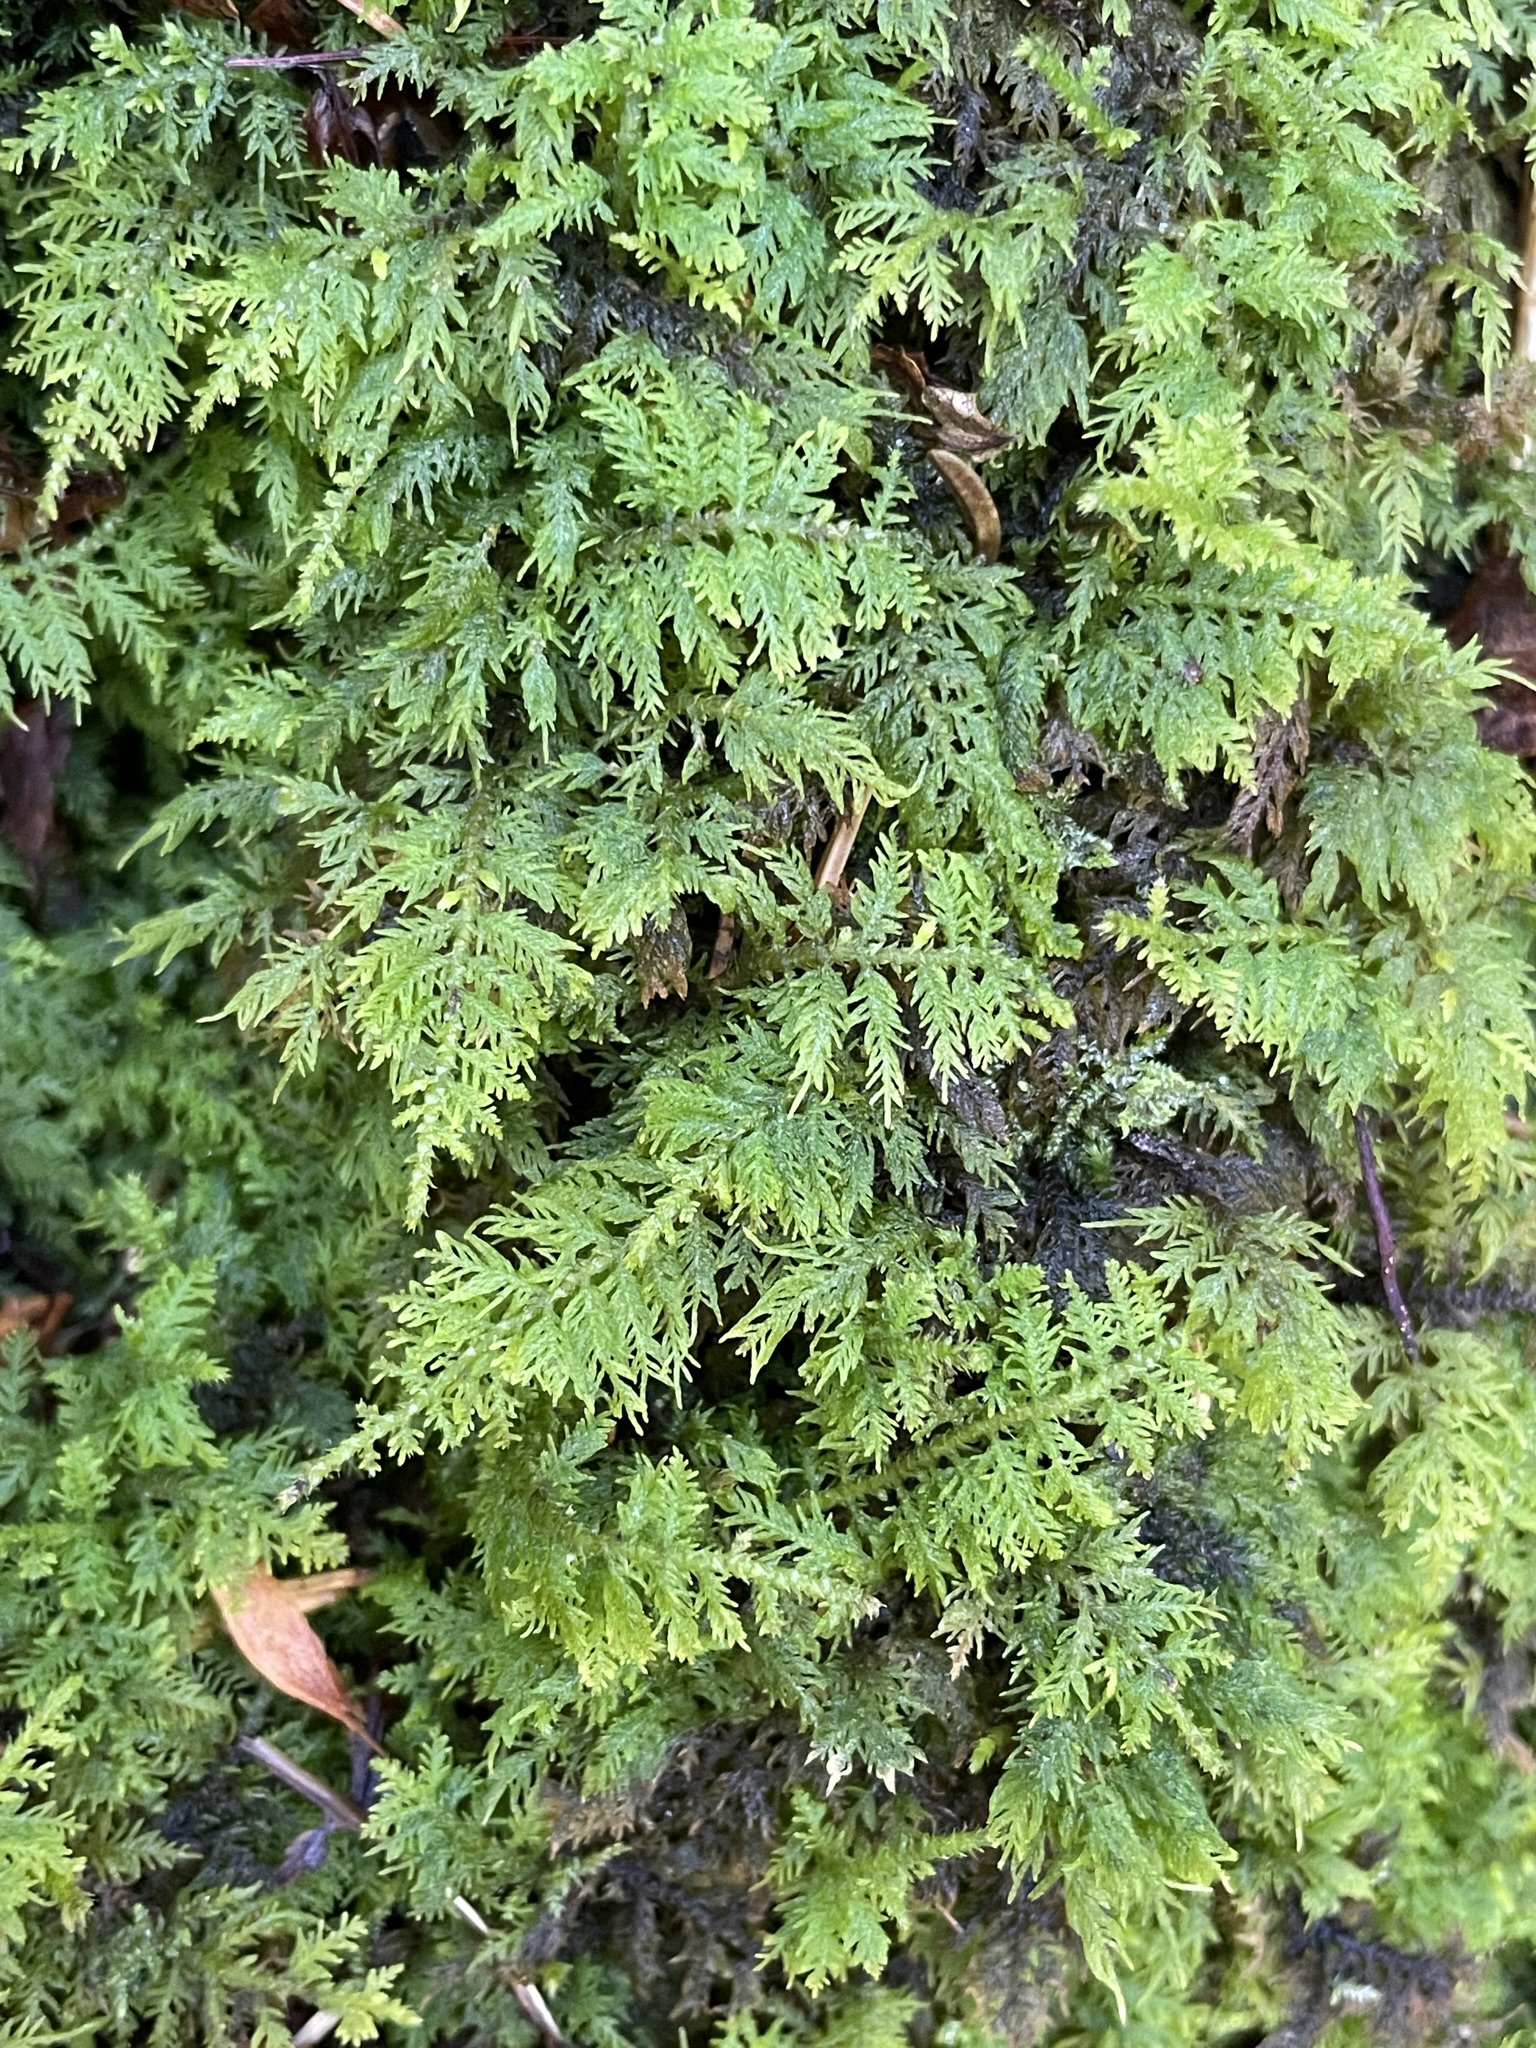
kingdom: Plantae
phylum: Bryophyta
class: Bryopsida
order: Hypnales
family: Thuidiaceae
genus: Thuidium
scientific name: Thuidium delicatulum
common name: Delicate fern moss
